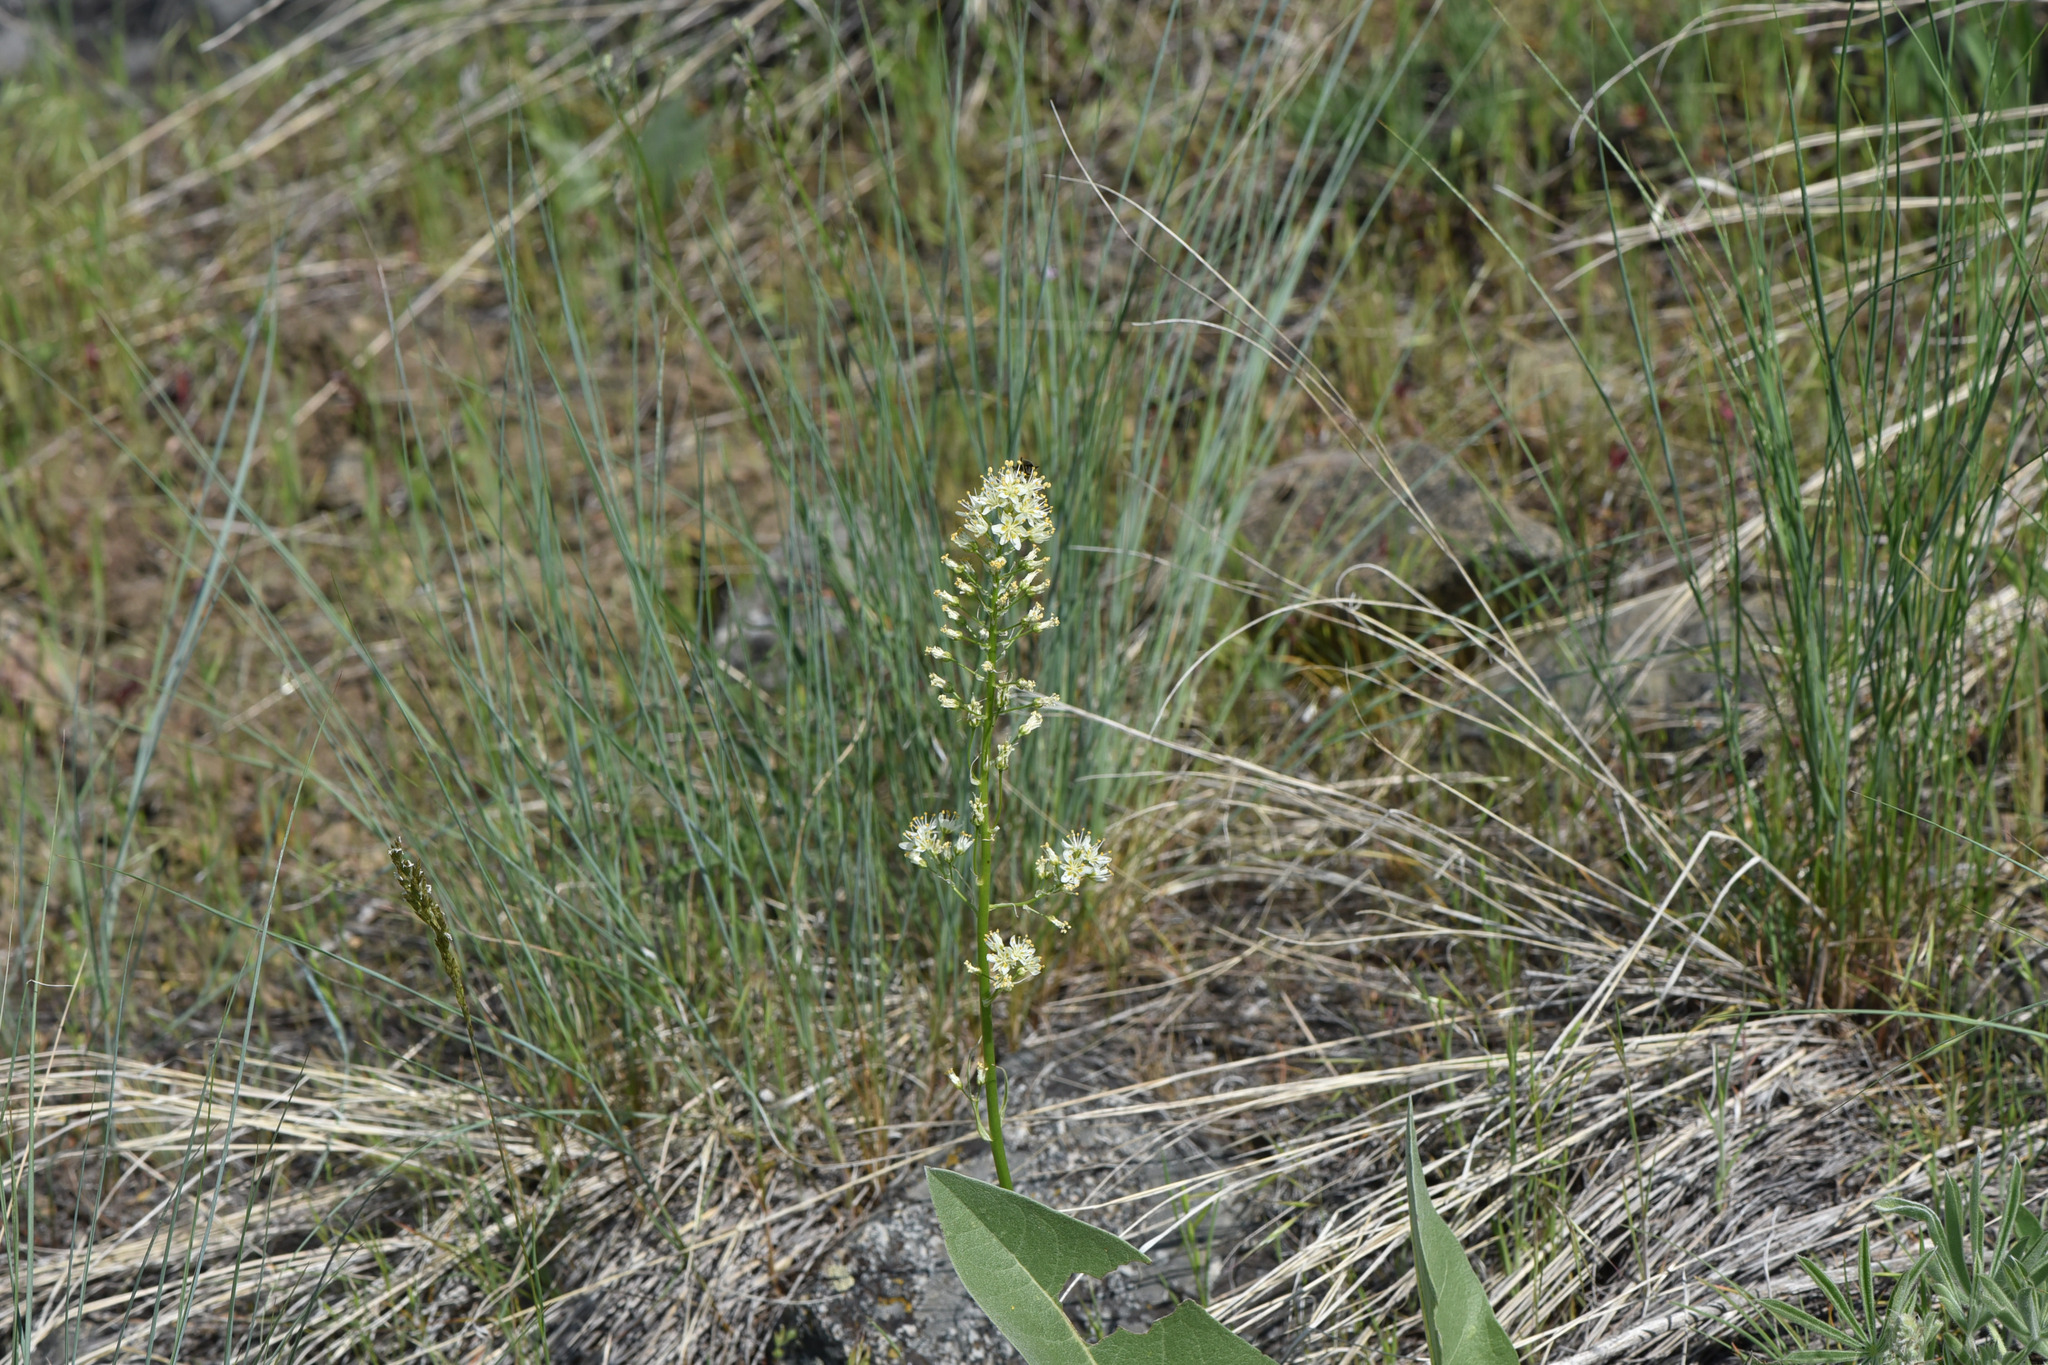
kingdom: Plantae
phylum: Tracheophyta
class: Liliopsida
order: Liliales
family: Melanthiaceae
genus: Toxicoscordion
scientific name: Toxicoscordion paniculatum
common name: Foothill death camas
